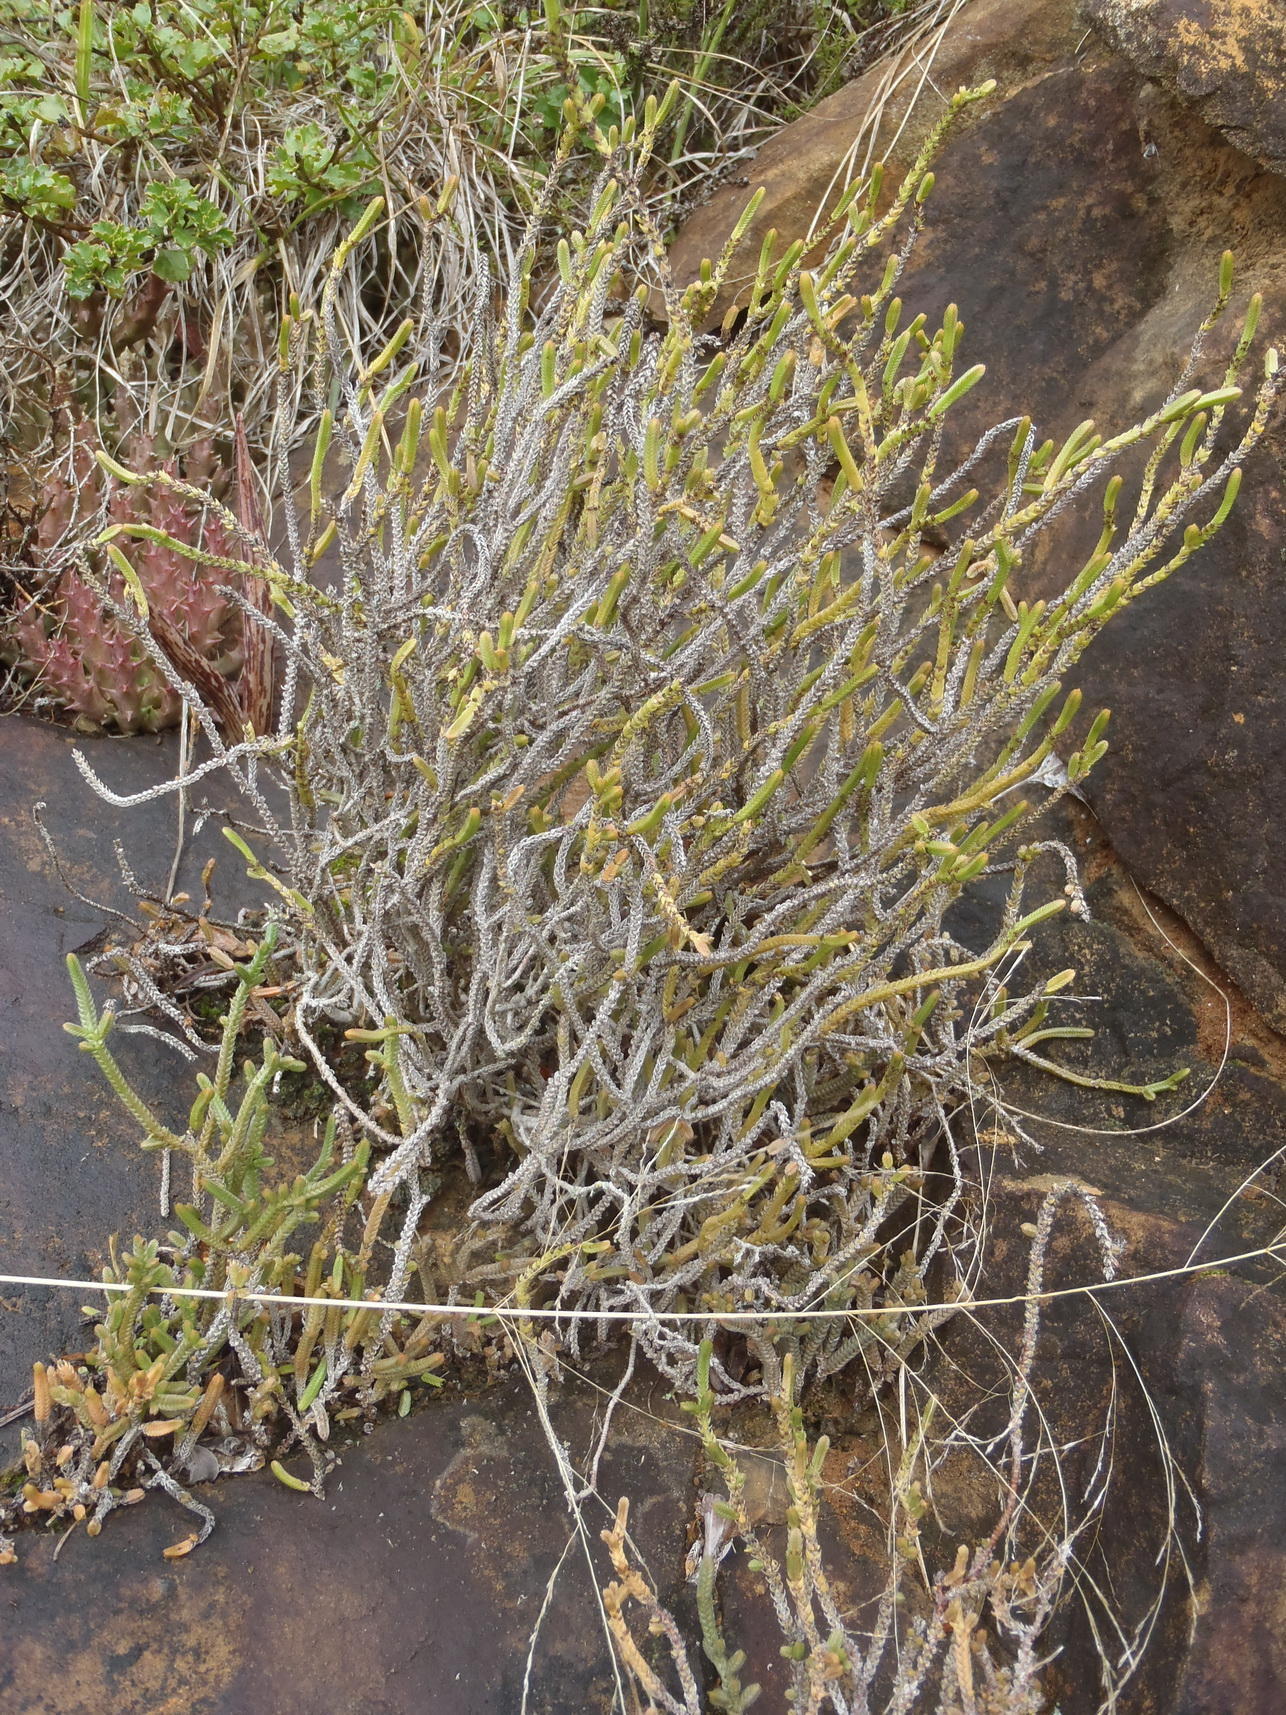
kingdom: Plantae
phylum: Tracheophyta
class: Magnoliopsida
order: Saxifragales
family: Crassulaceae
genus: Crassula
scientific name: Crassula muscosa
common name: Toy-cypress
